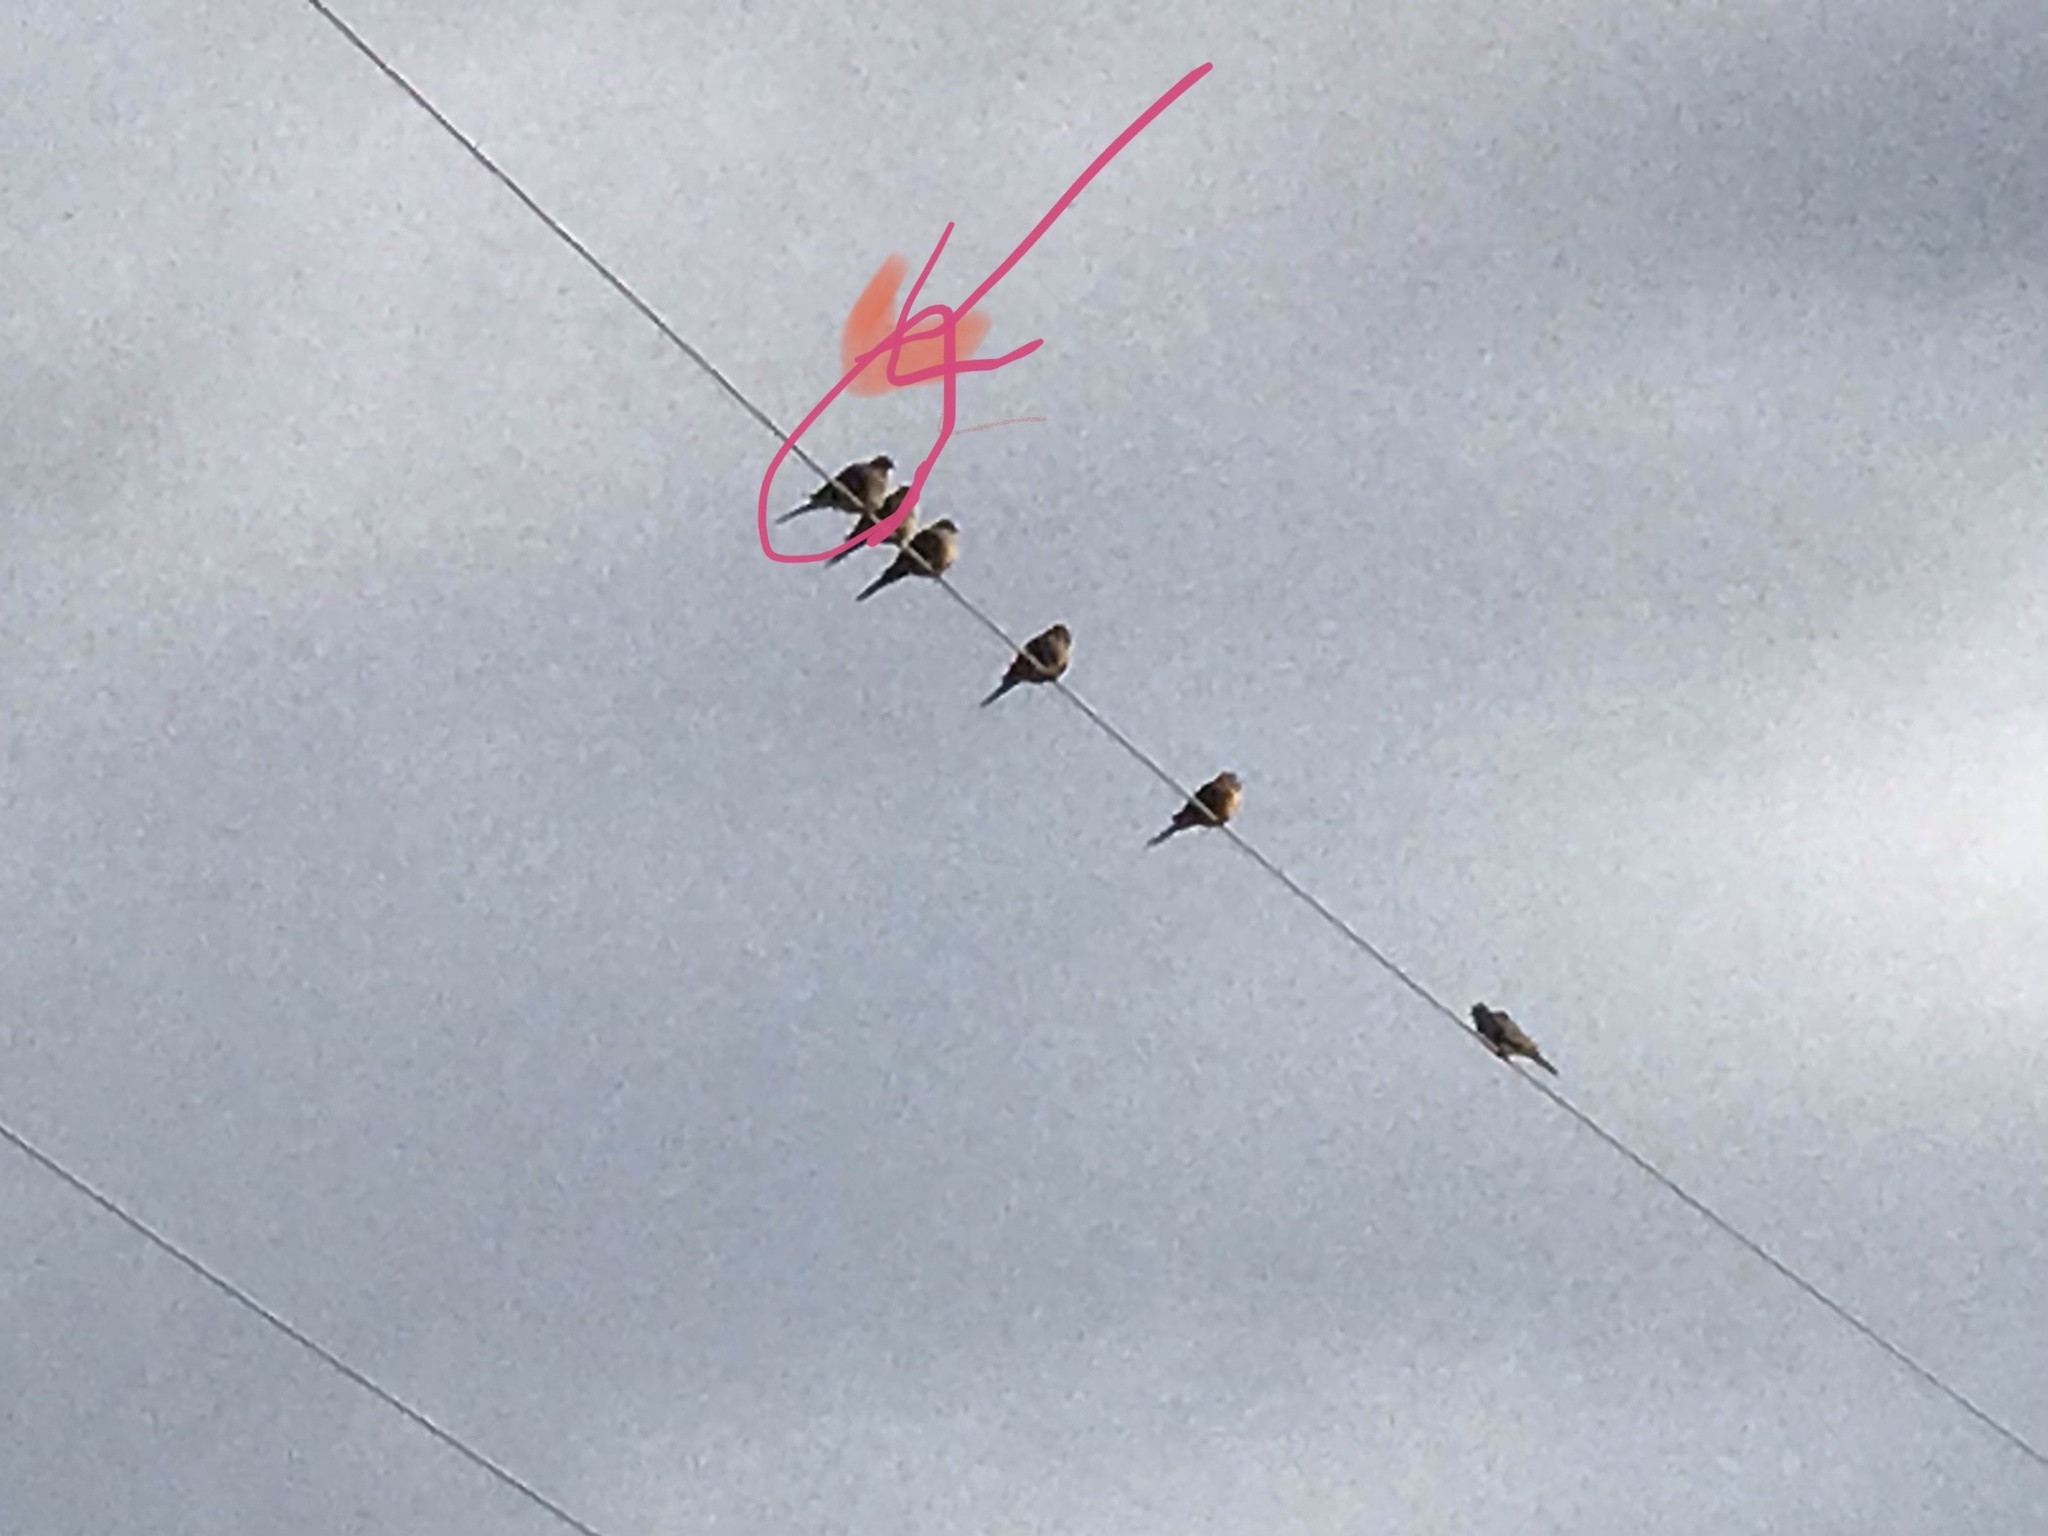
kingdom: Animalia
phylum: Chordata
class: Aves
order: Columbiformes
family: Columbidae
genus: Zenaida
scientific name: Zenaida macroura
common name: Mourning dove
